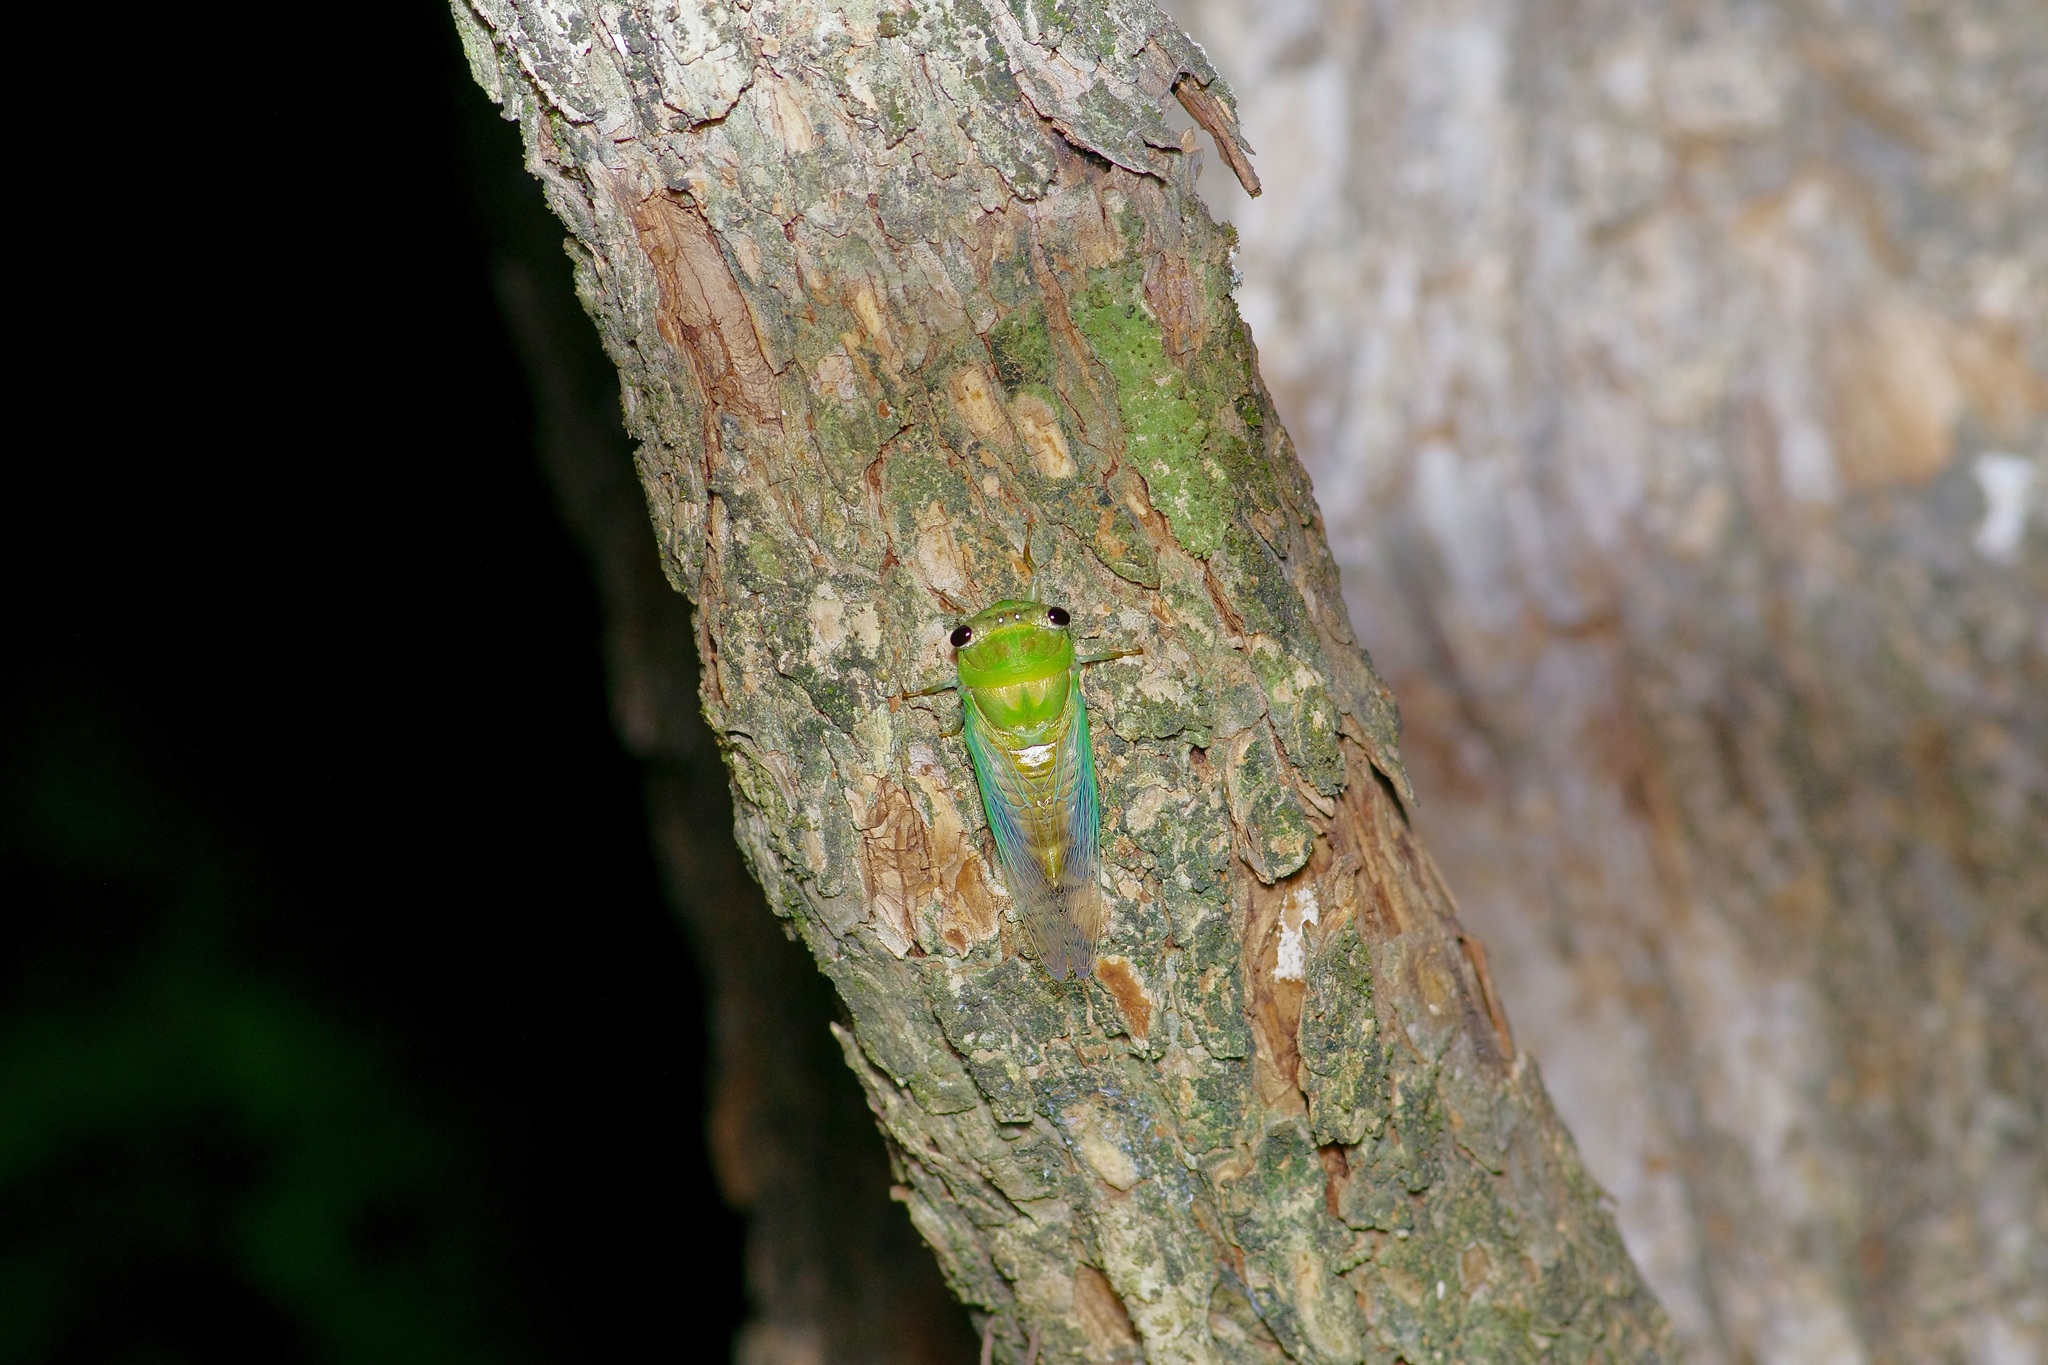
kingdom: Animalia
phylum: Arthropoda
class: Insecta
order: Hemiptera
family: Cicadidae
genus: Neotibicen
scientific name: Neotibicen superbus
